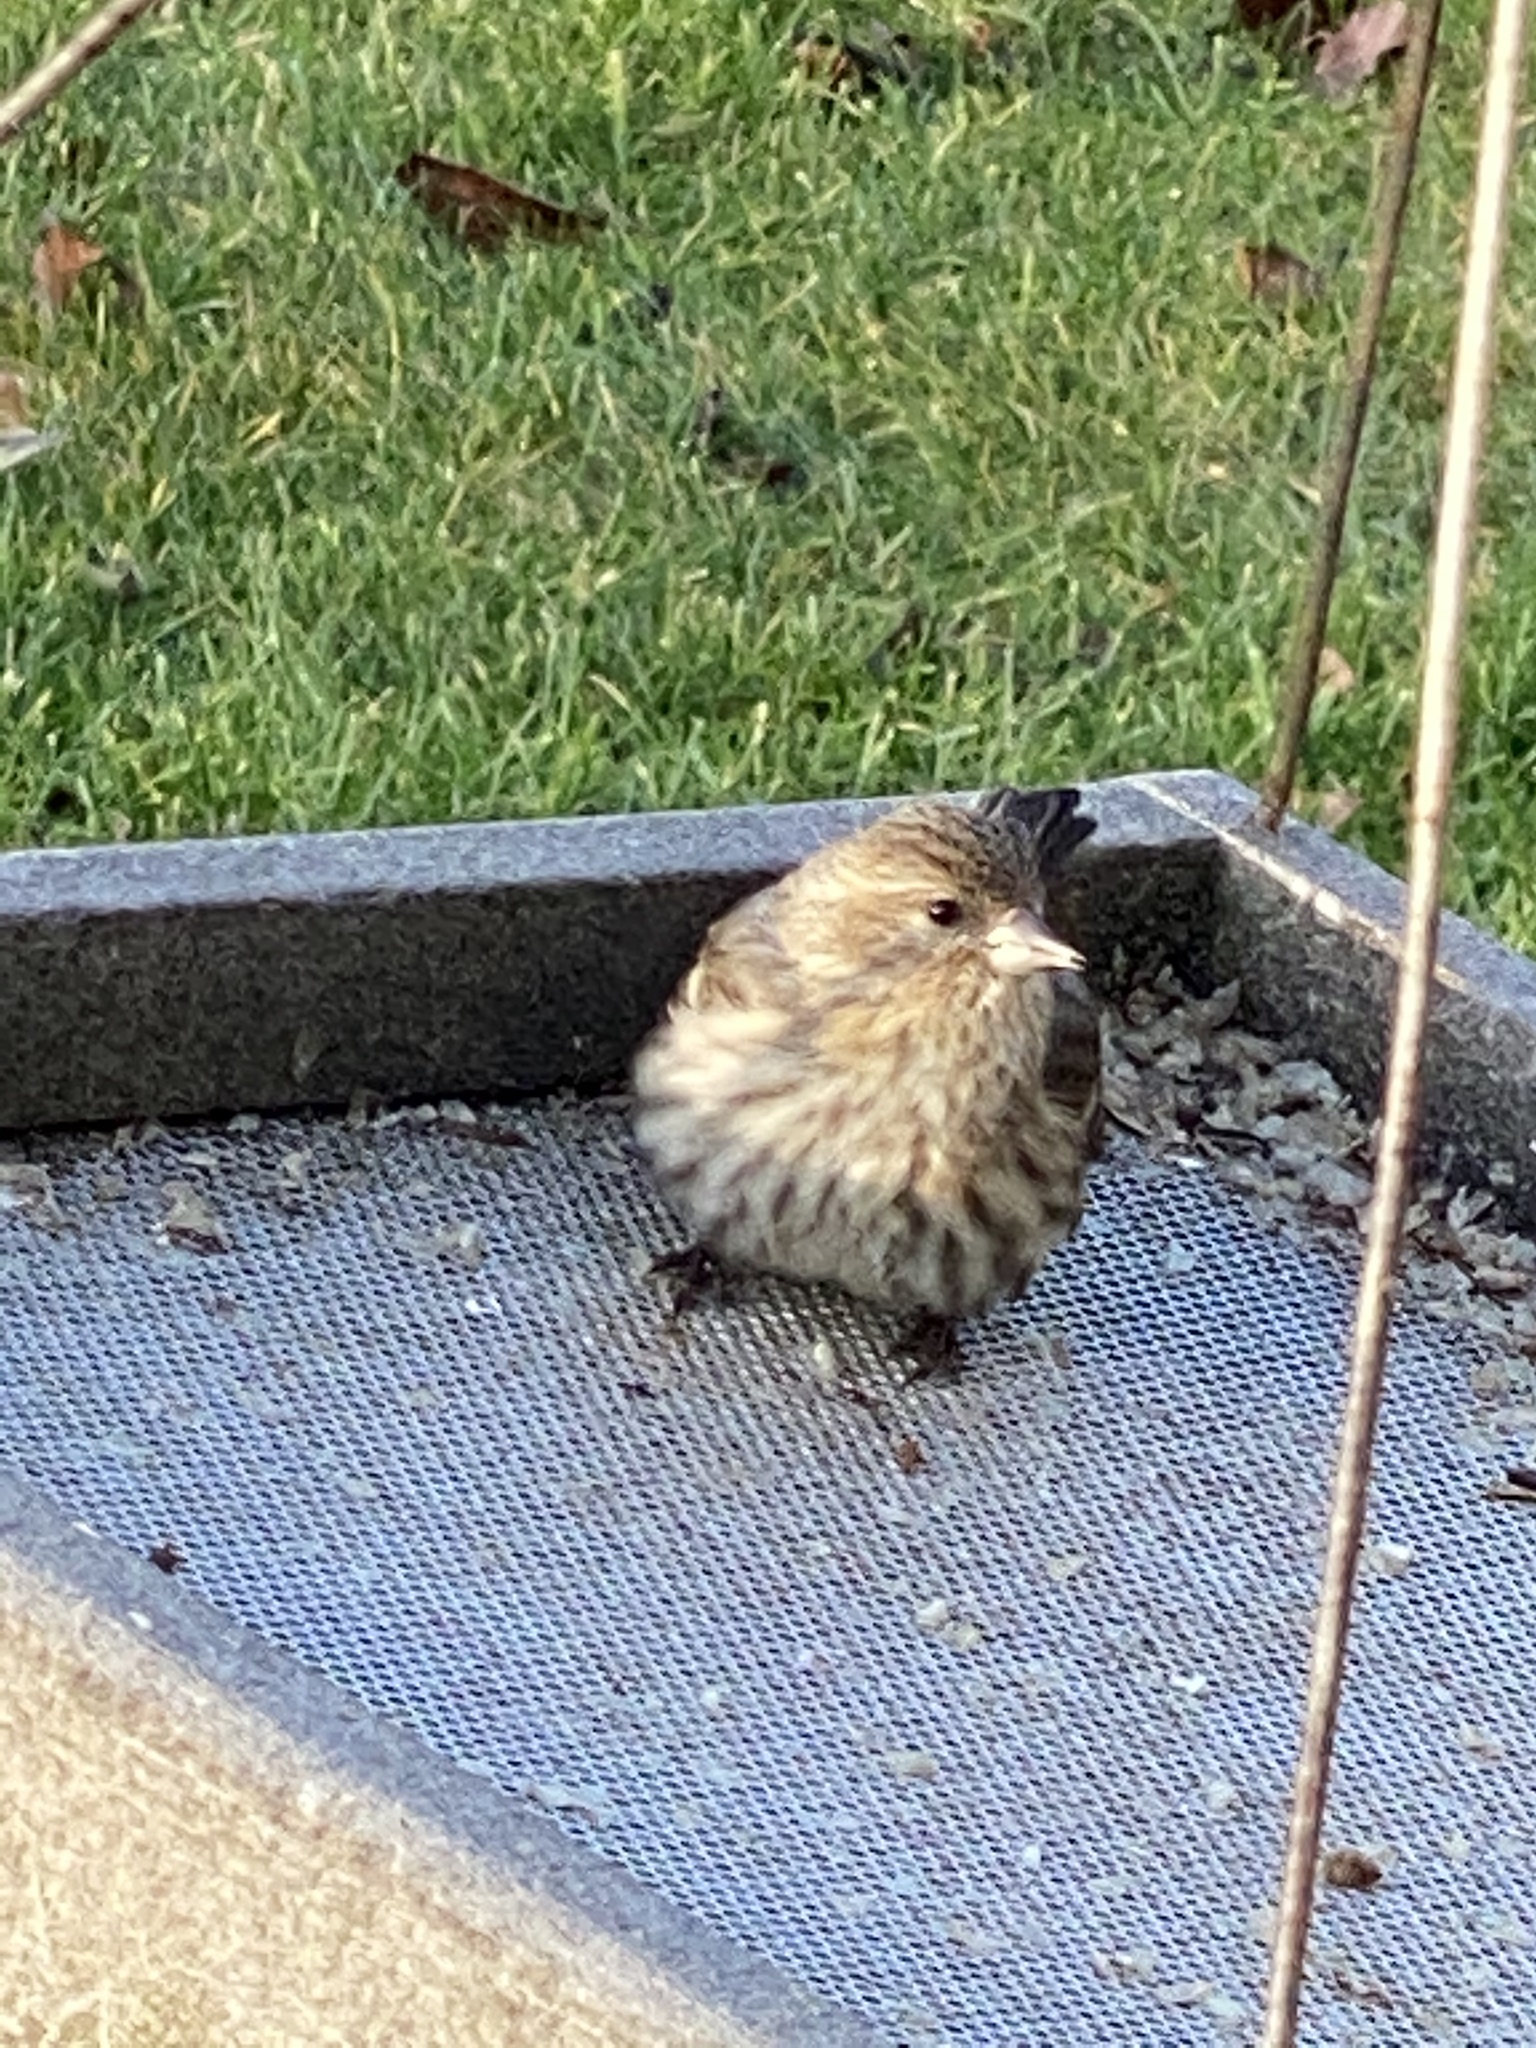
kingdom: Animalia
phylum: Chordata
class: Aves
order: Passeriformes
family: Fringillidae
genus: Spinus
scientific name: Spinus pinus
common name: Pine siskin
